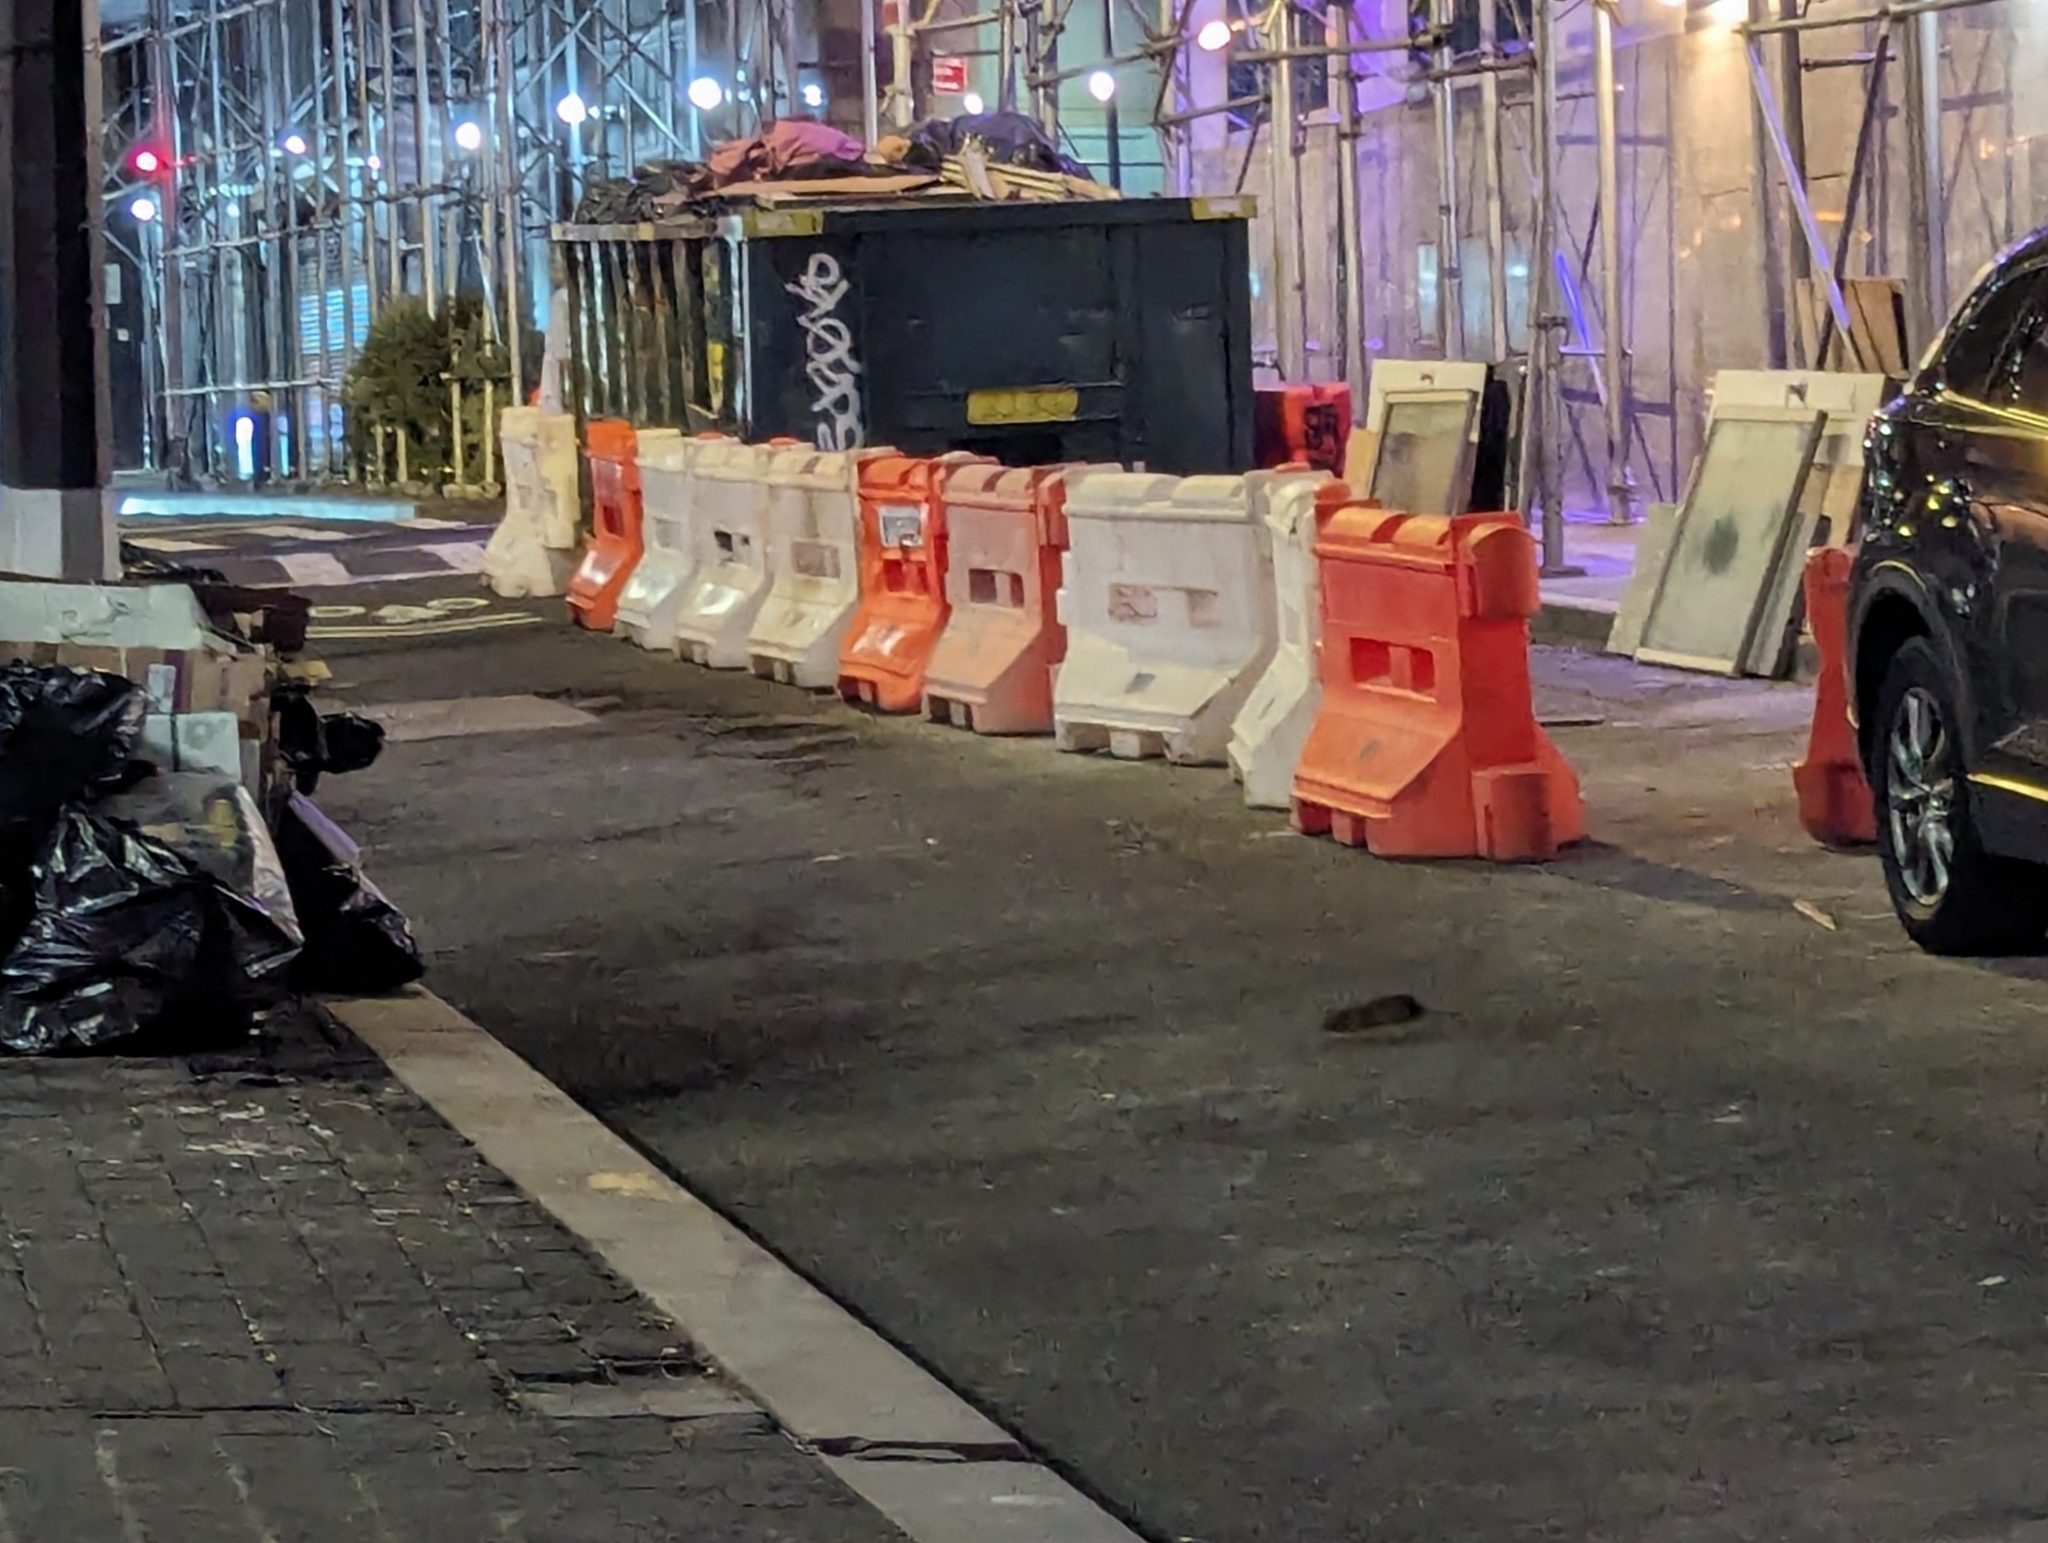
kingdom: Animalia
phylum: Chordata
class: Mammalia
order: Rodentia
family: Muridae
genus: Rattus
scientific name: Rattus norvegicus
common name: Brown rat
